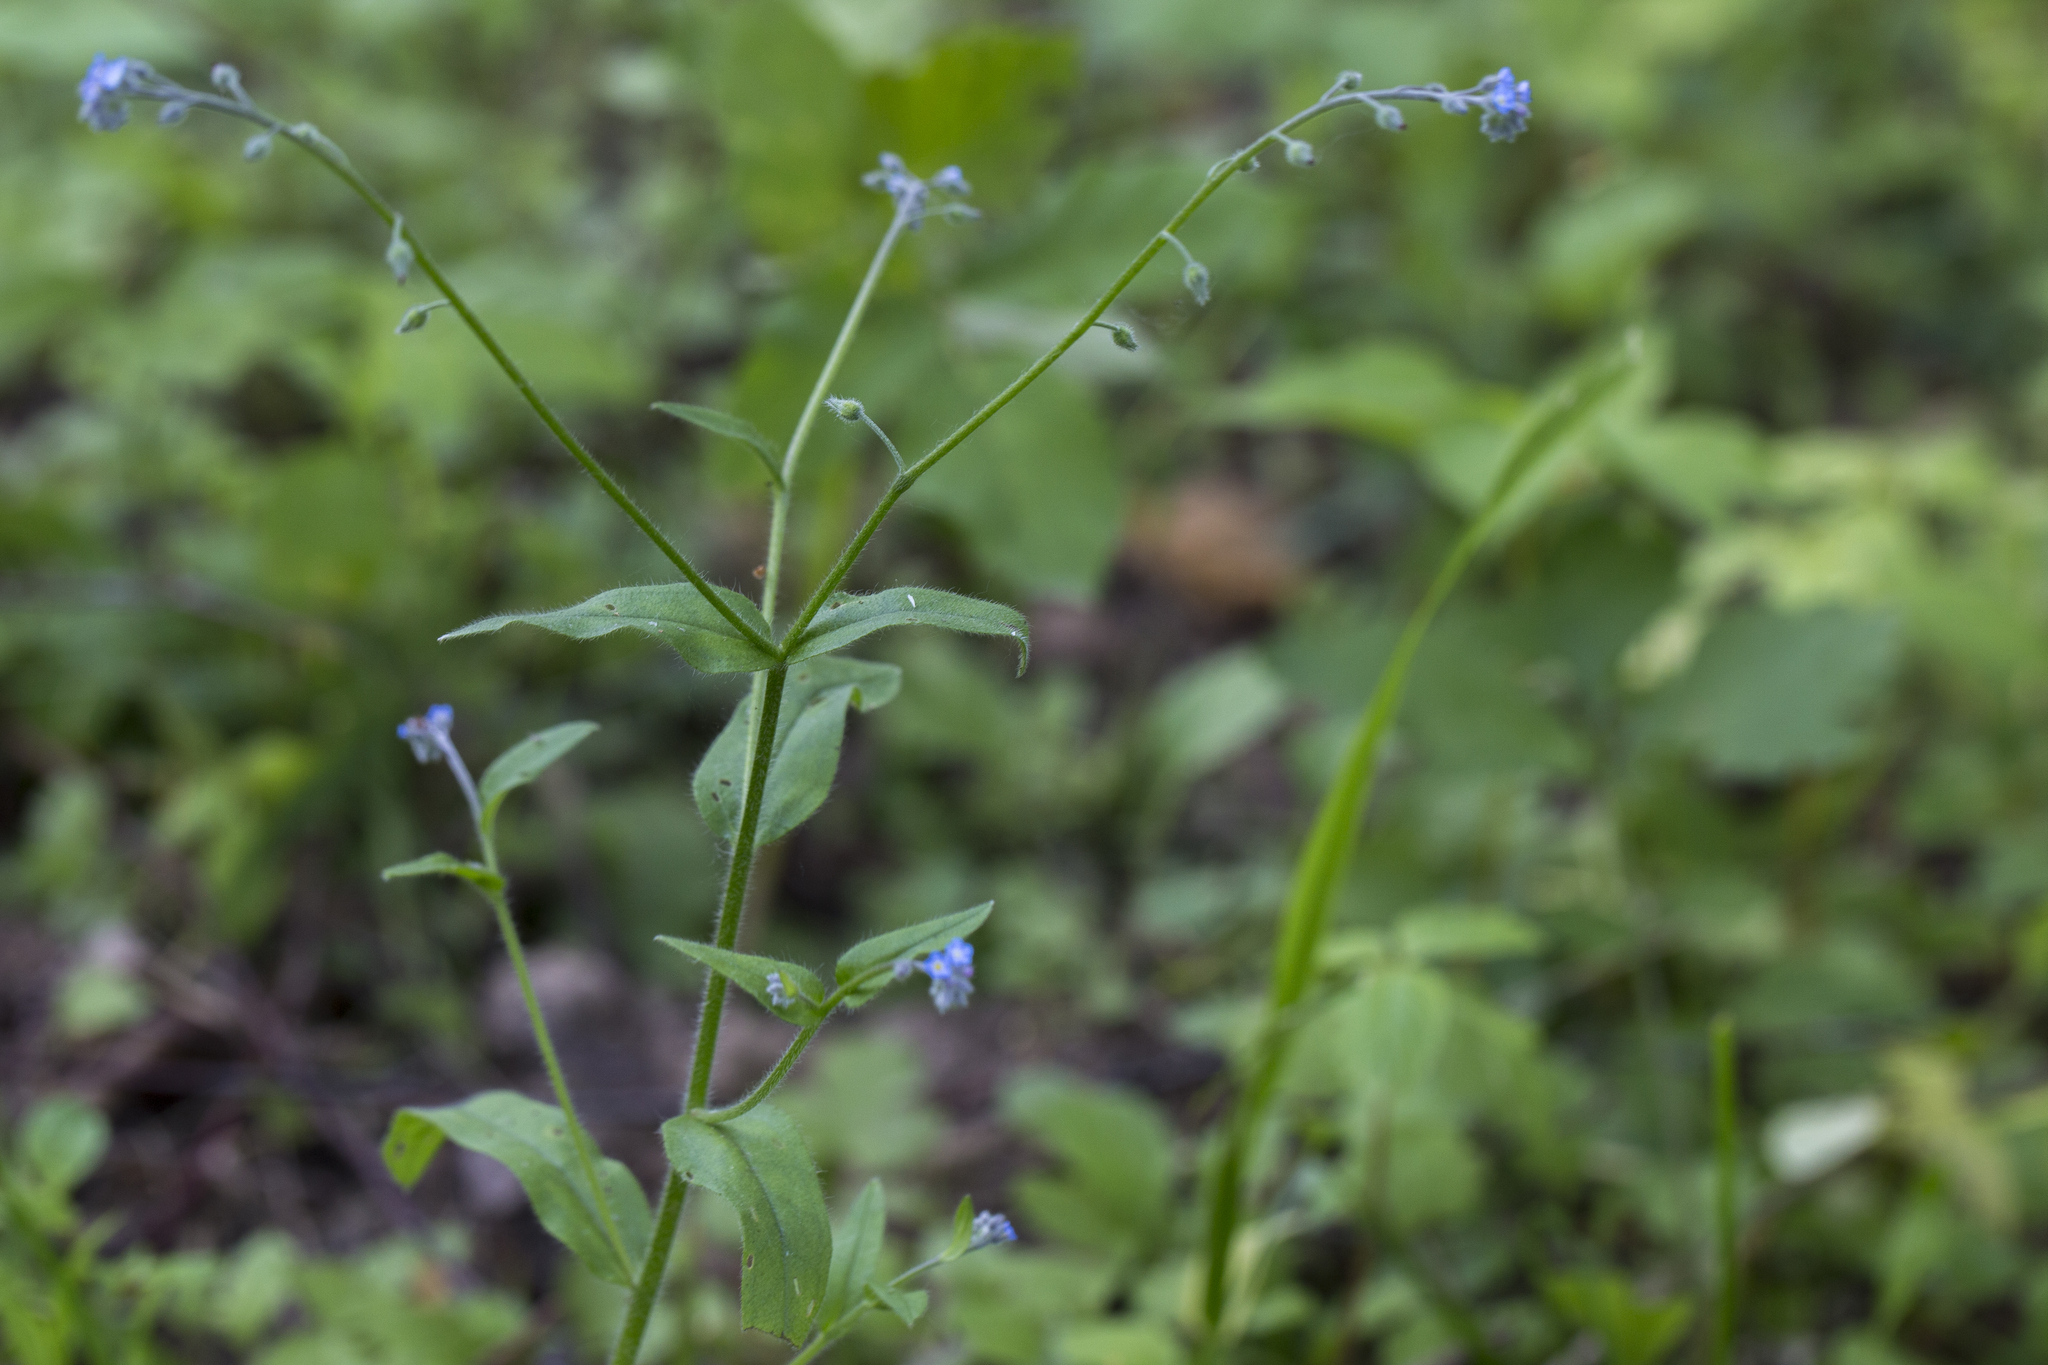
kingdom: Plantae
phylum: Tracheophyta
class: Magnoliopsida
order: Boraginales
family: Boraginaceae
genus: Myosotis
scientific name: Myosotis arvensis
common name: Field forget-me-not
